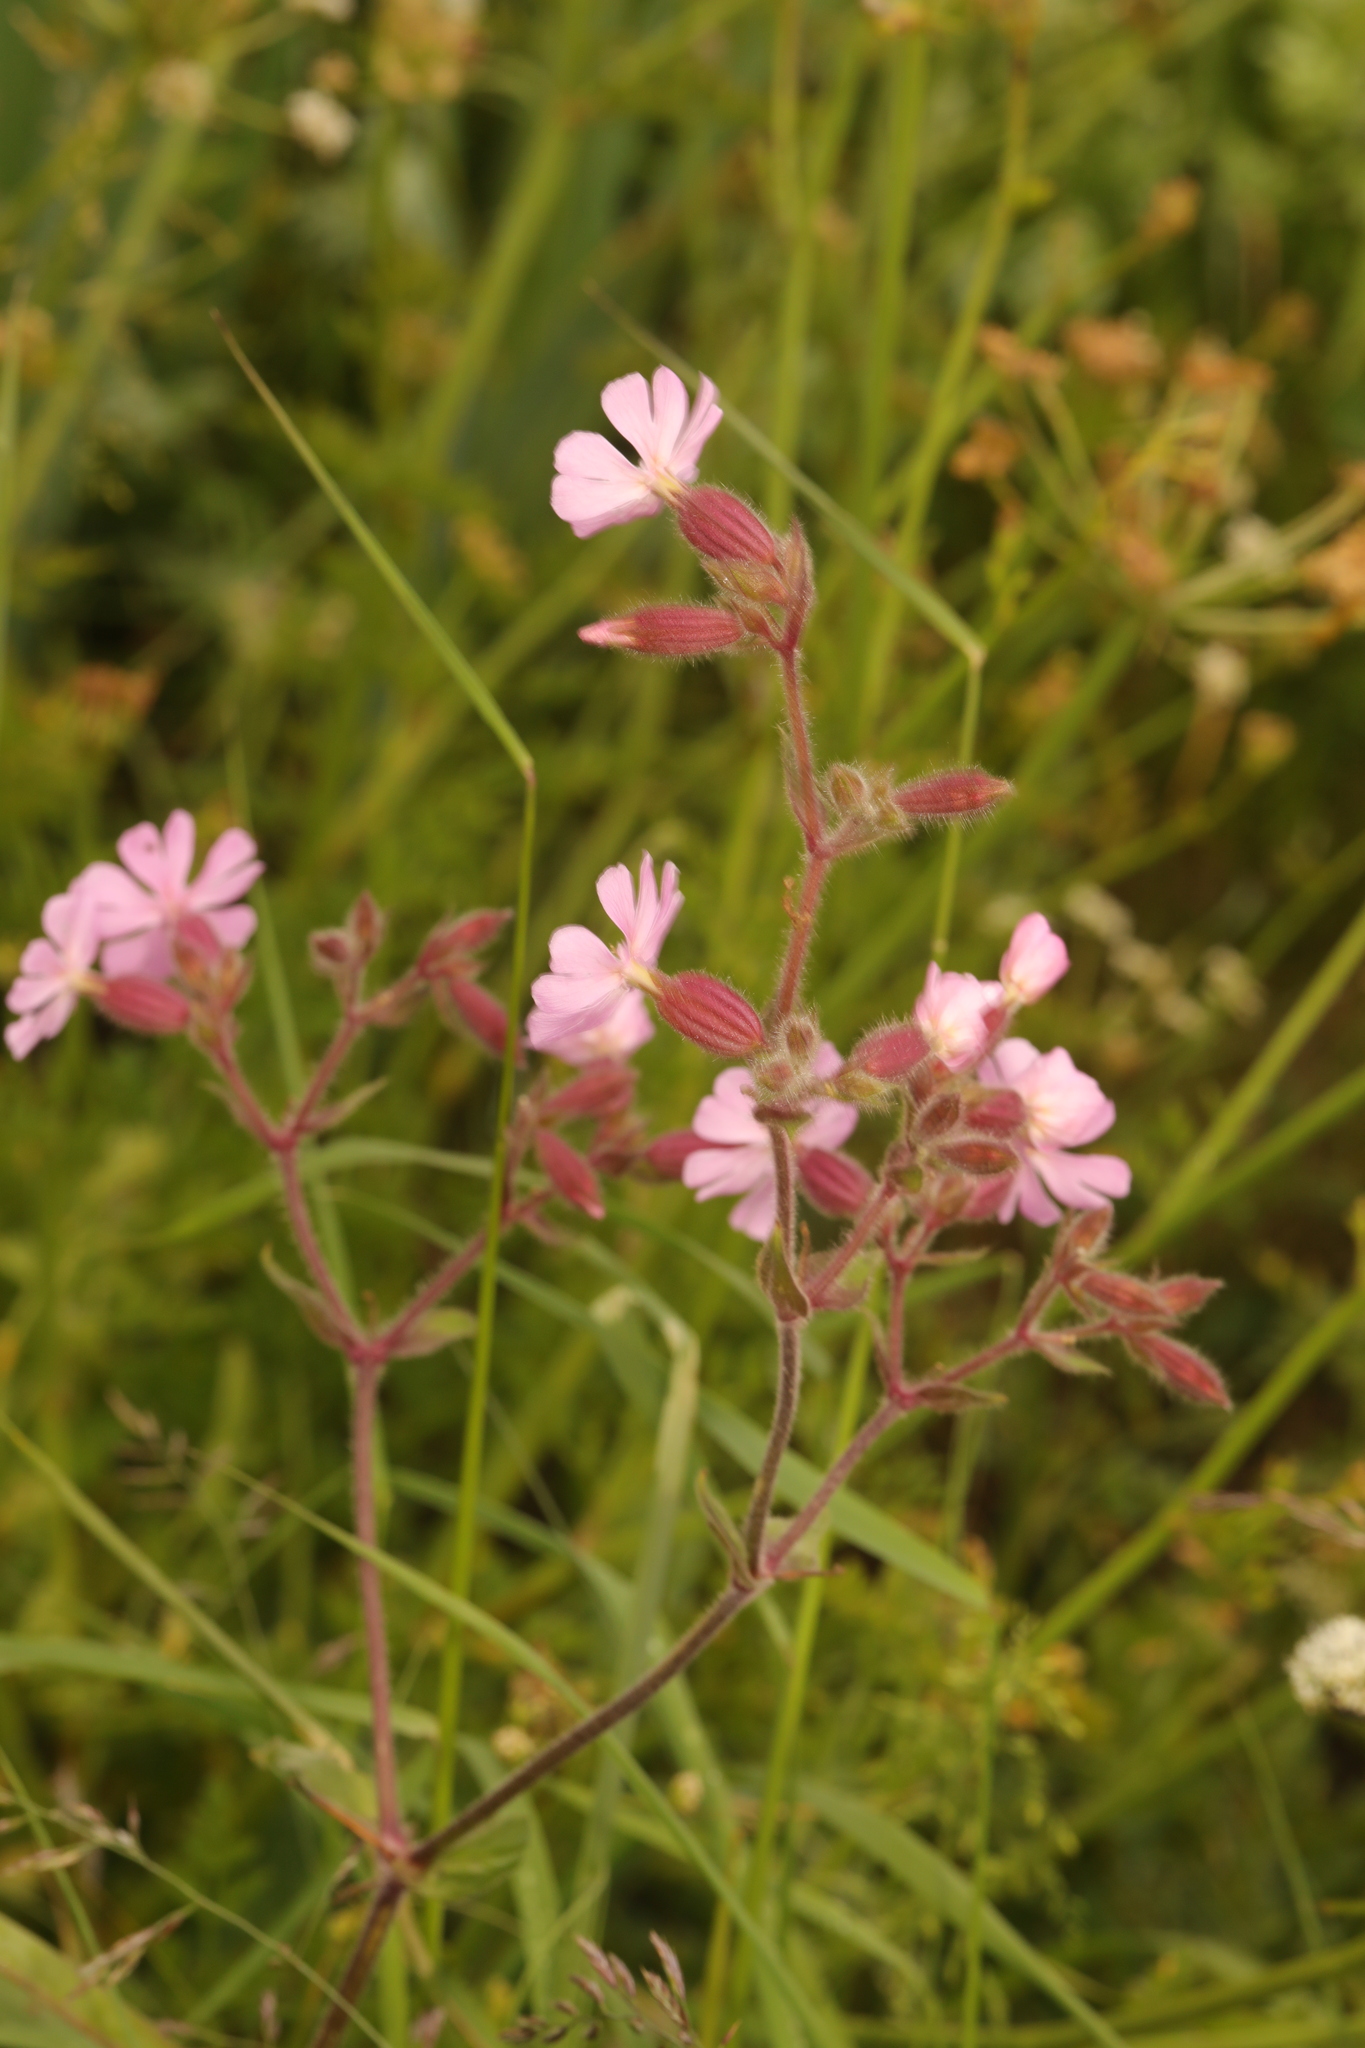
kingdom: Plantae
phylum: Tracheophyta
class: Magnoliopsida
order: Caryophyllales
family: Caryophyllaceae
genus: Silene
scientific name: Silene dioica
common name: Red campion
